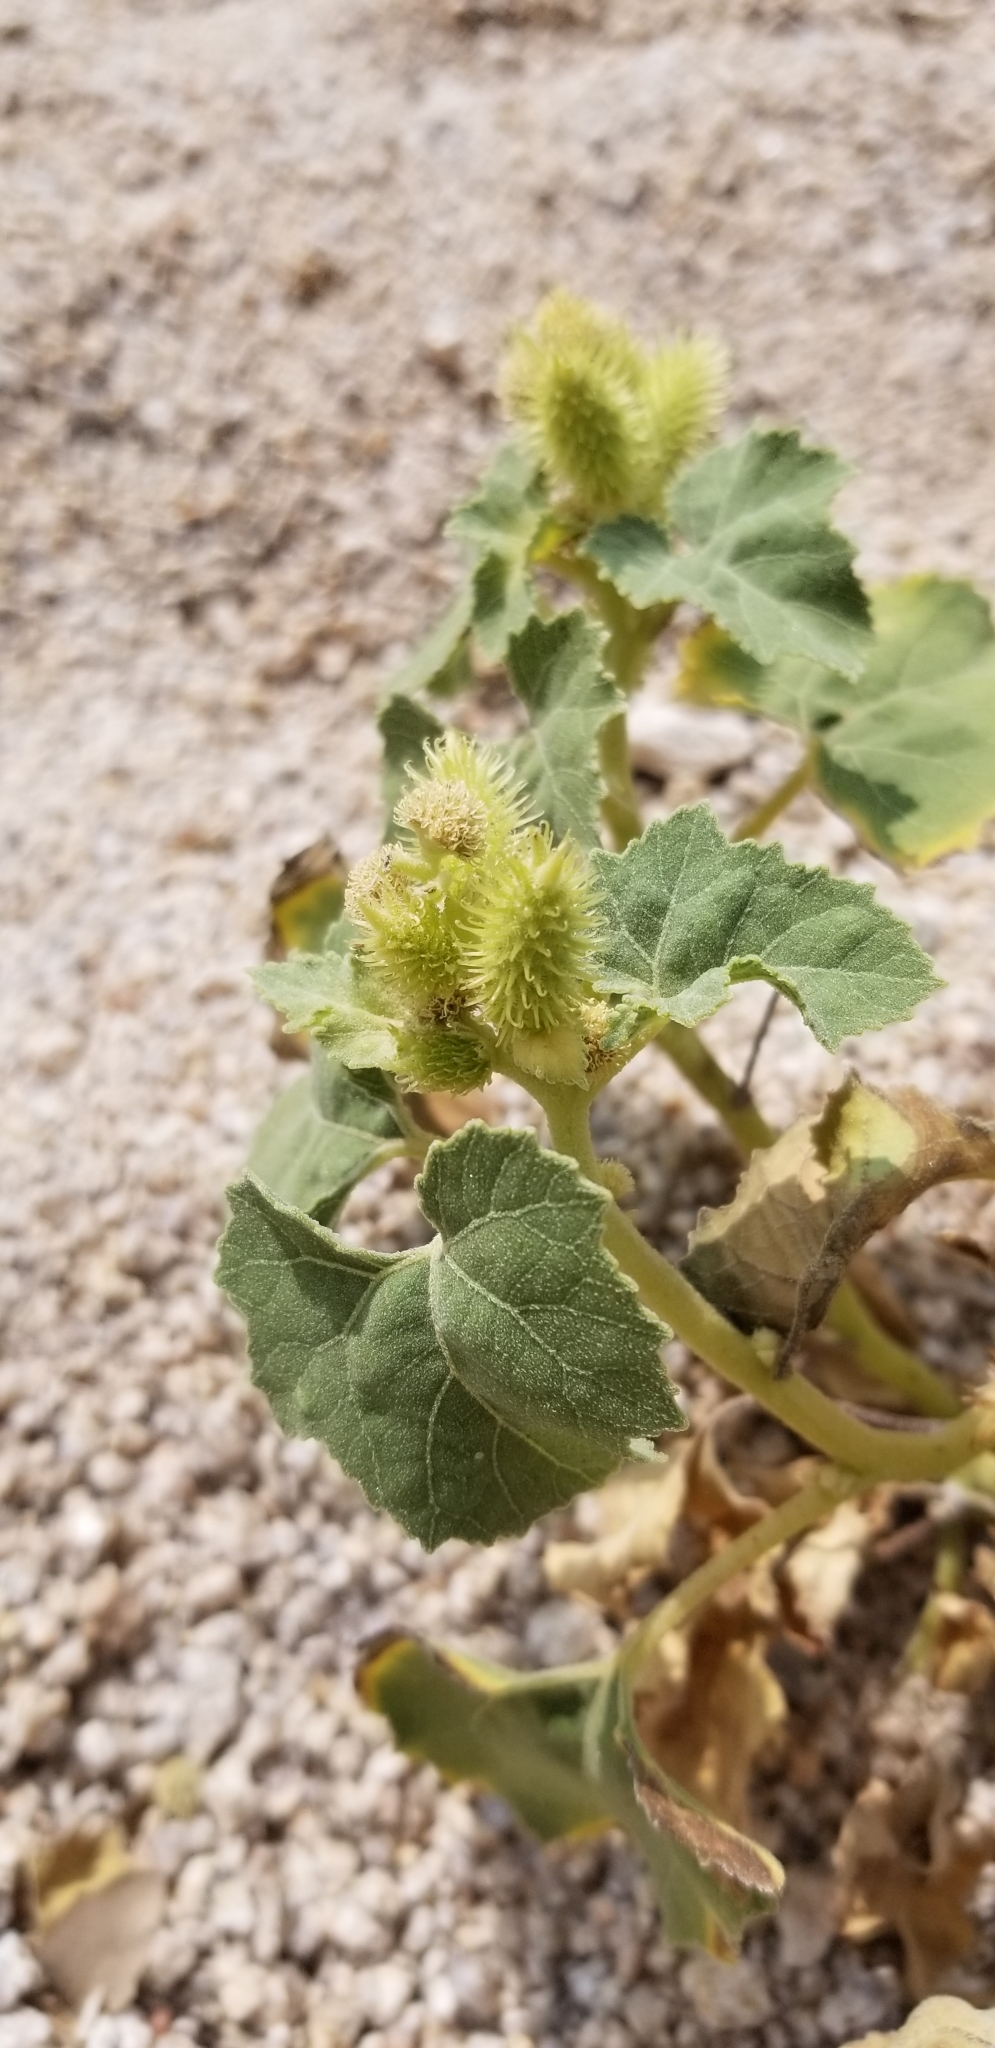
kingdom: Plantae
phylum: Tracheophyta
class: Magnoliopsida
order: Asterales
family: Asteraceae
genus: Xanthium
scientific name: Xanthium strumarium
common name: Rough cocklebur
